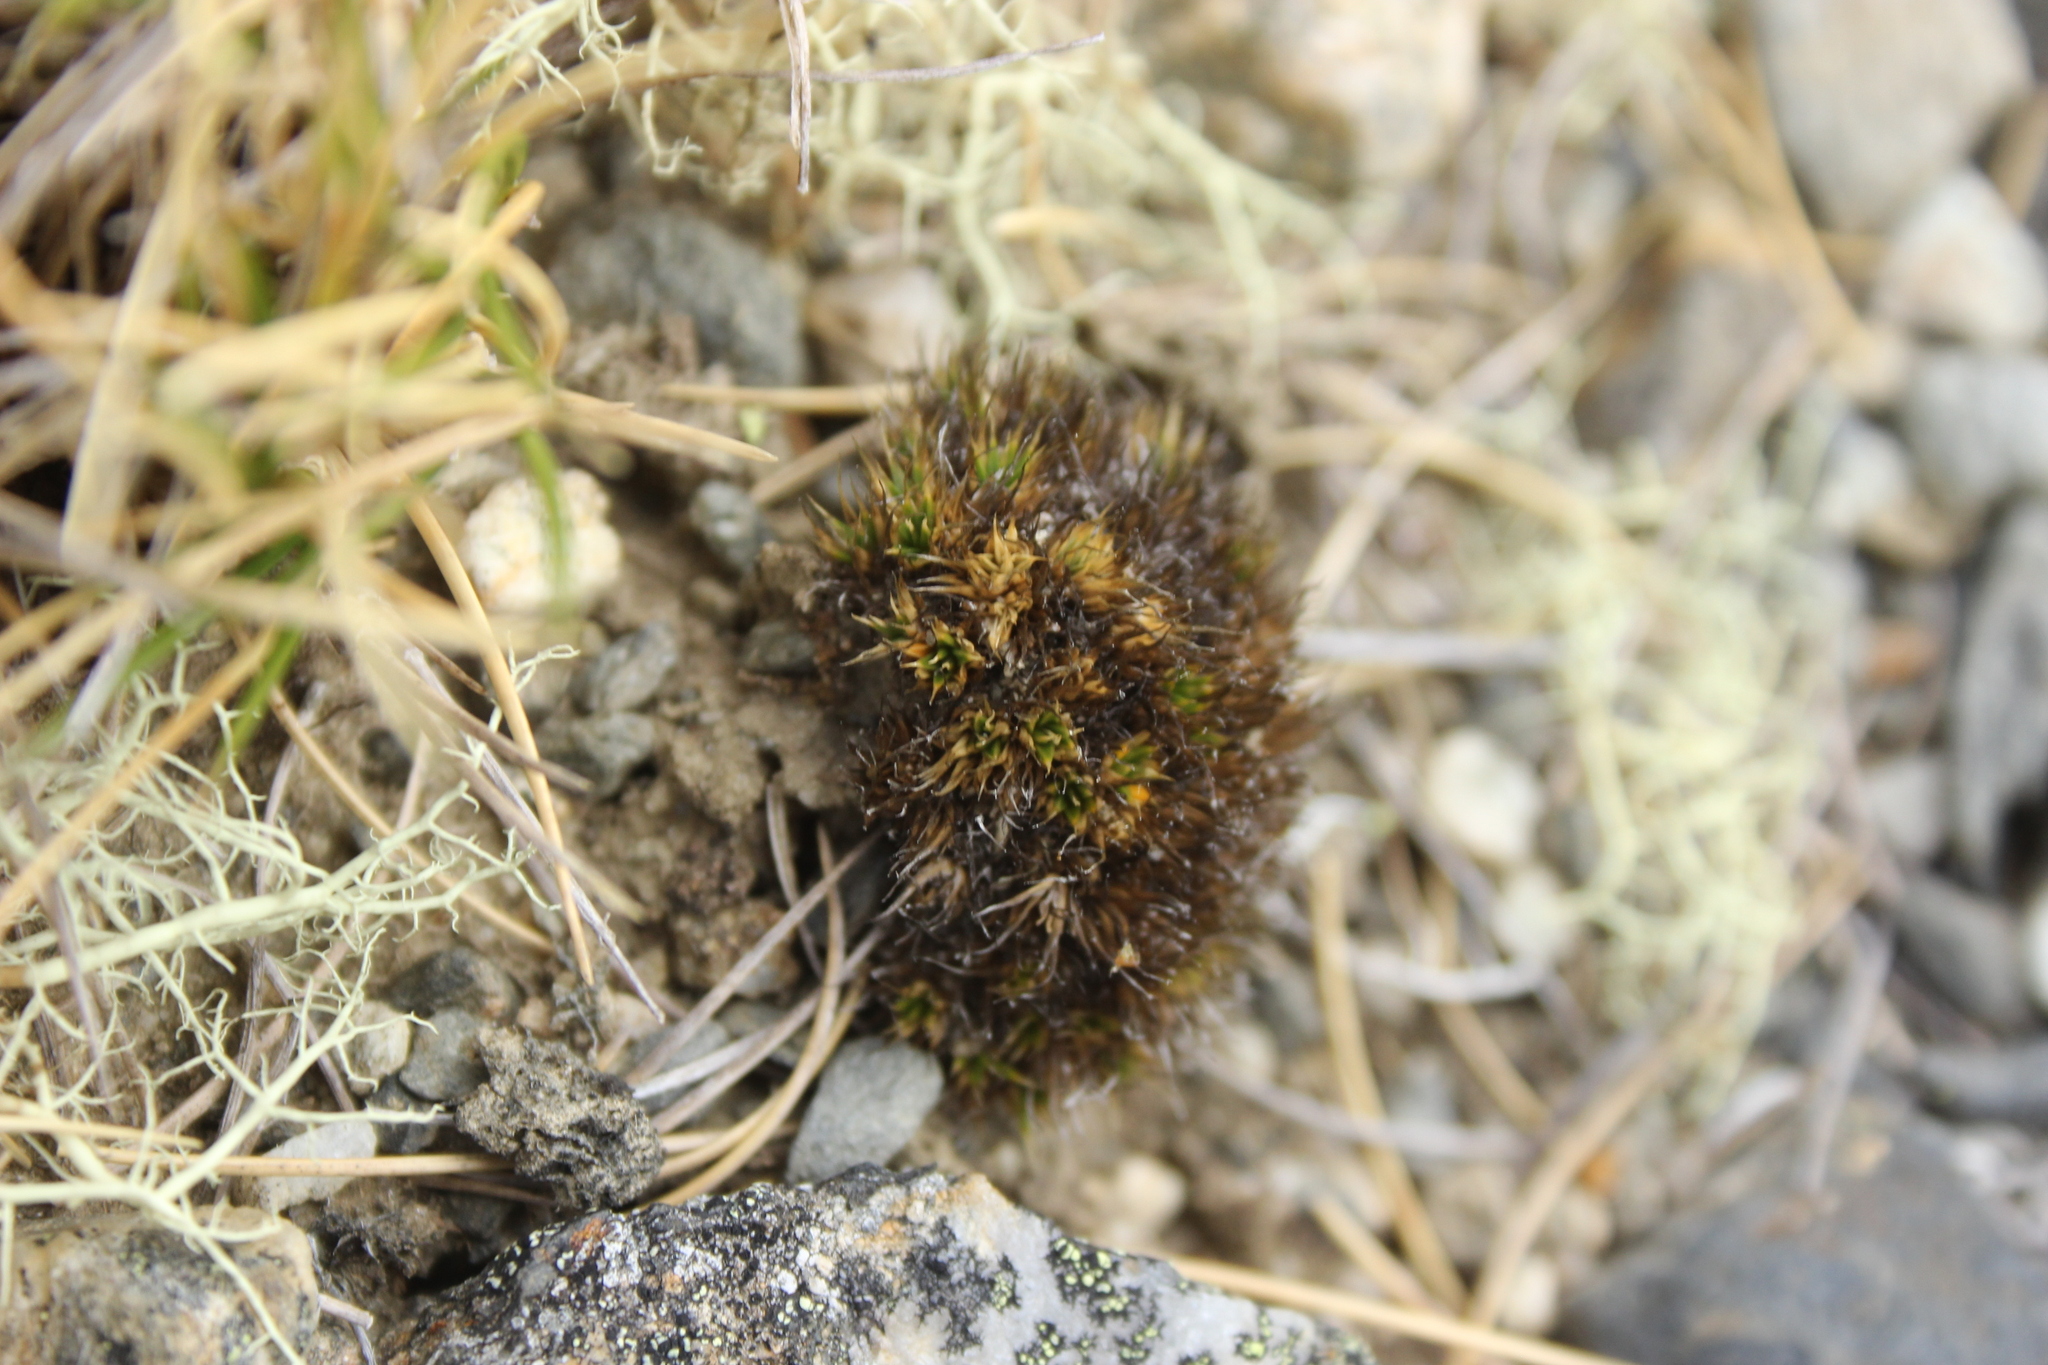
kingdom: Plantae
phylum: Tracheophyta
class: Magnoliopsida
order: Caryophyllales
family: Caryophyllaceae
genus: Colobanthus
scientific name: Colobanthus buchananii
